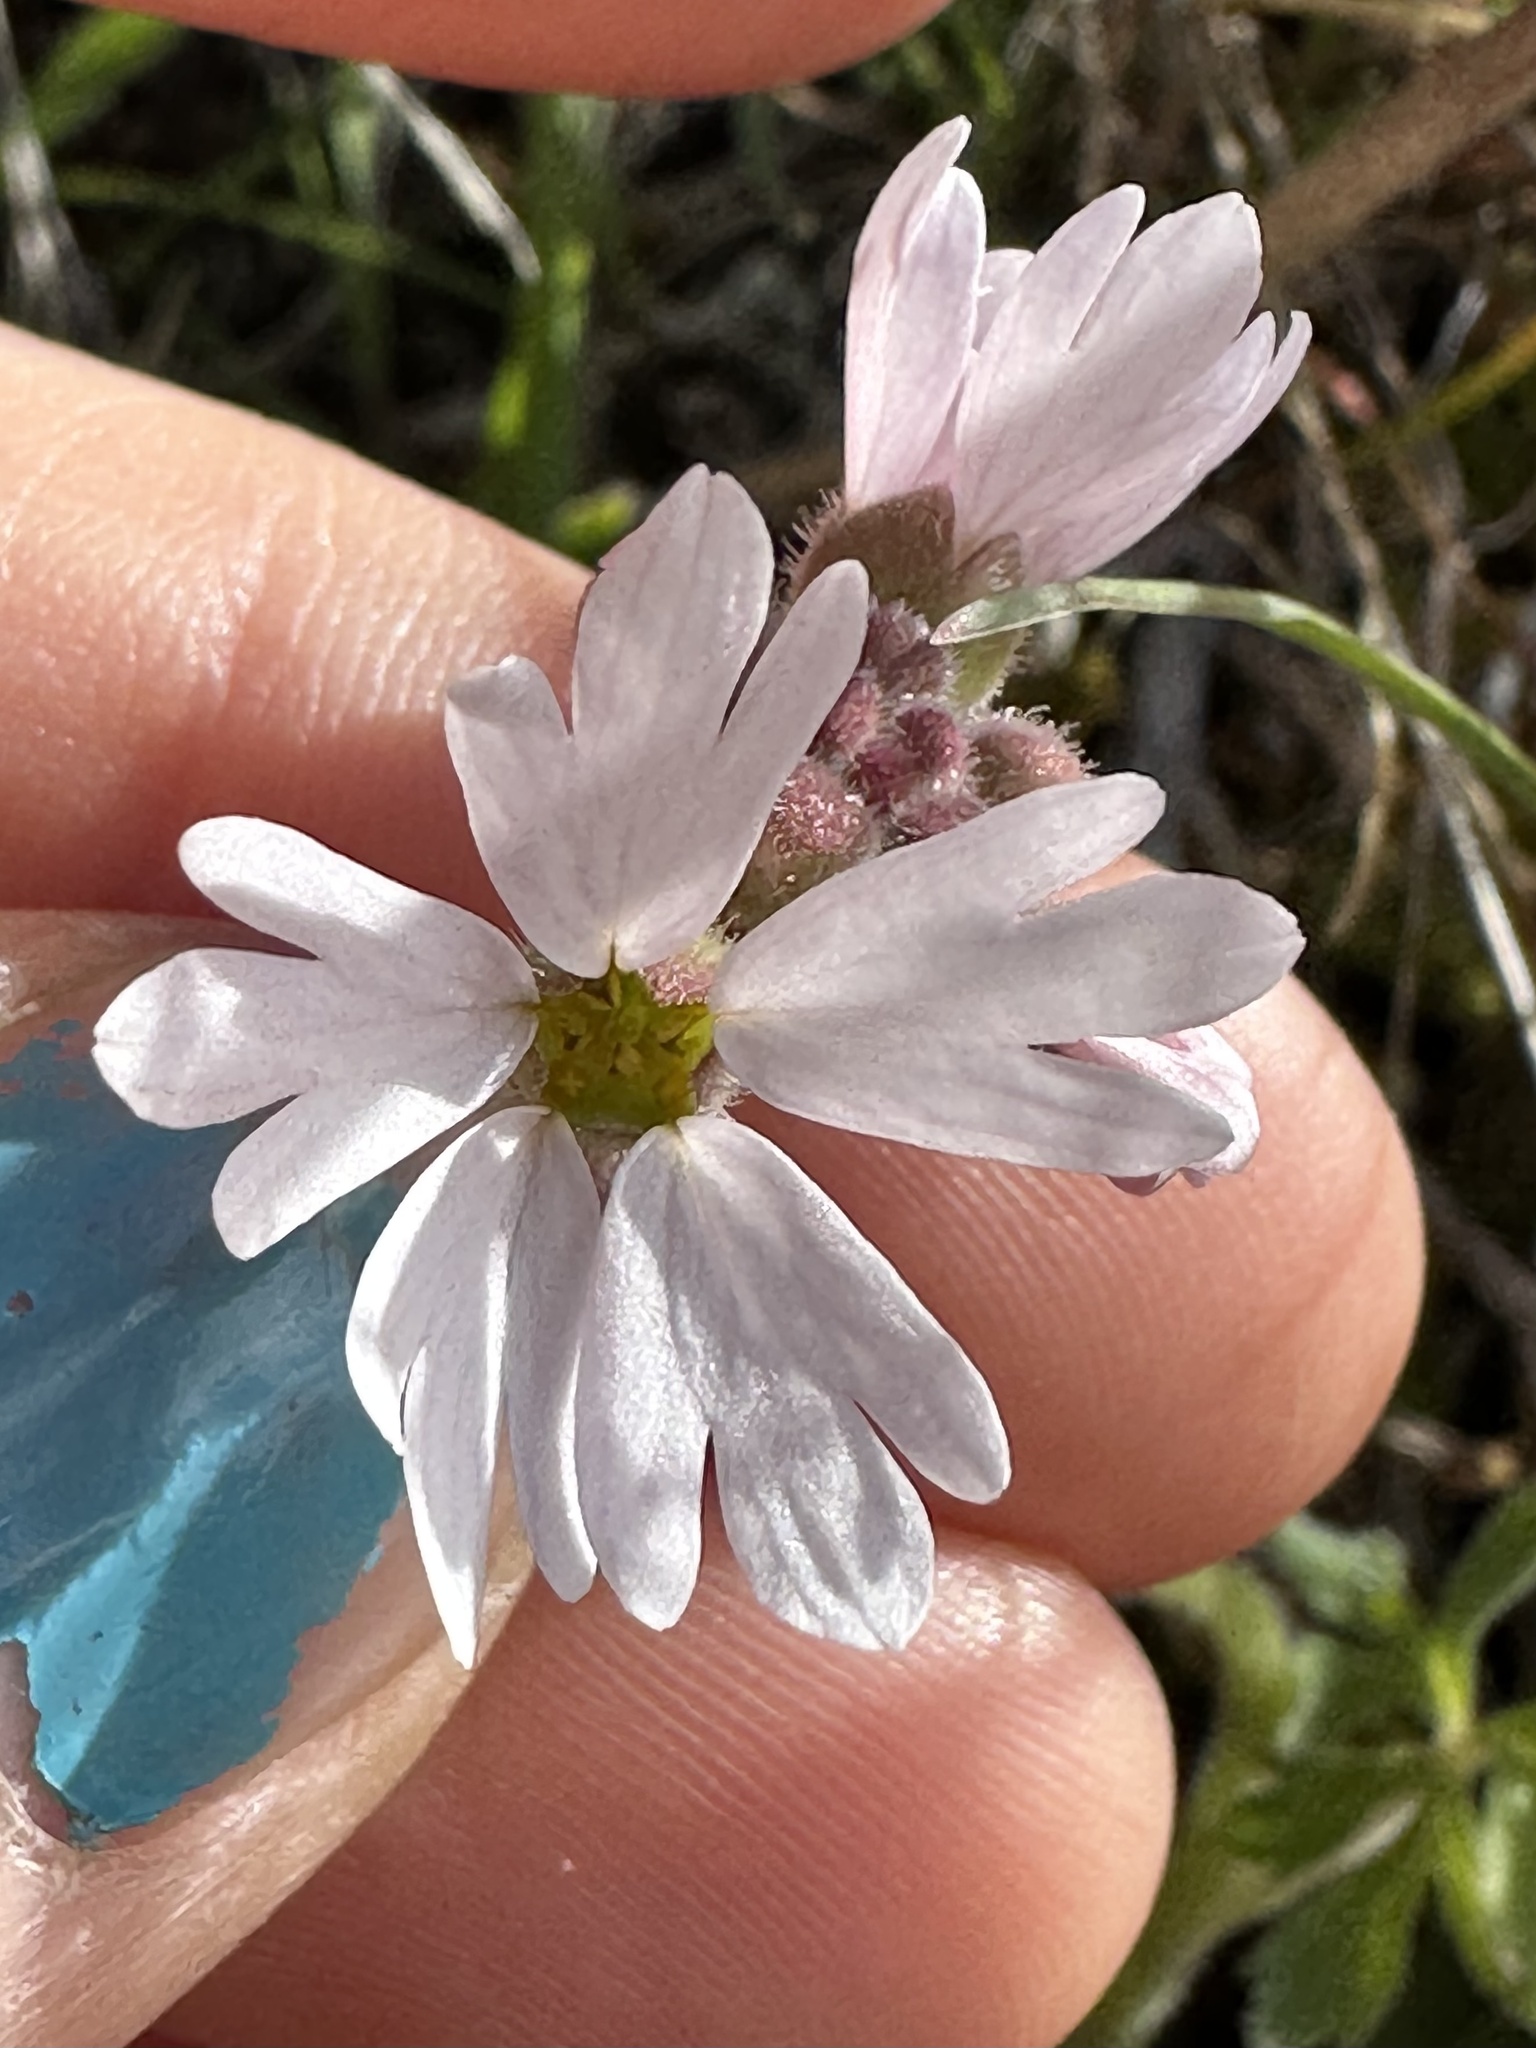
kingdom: Plantae
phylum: Tracheophyta
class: Magnoliopsida
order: Saxifragales
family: Saxifragaceae
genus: Lithophragma
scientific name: Lithophragma parviflorum
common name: Small-flowered fringe-cup
